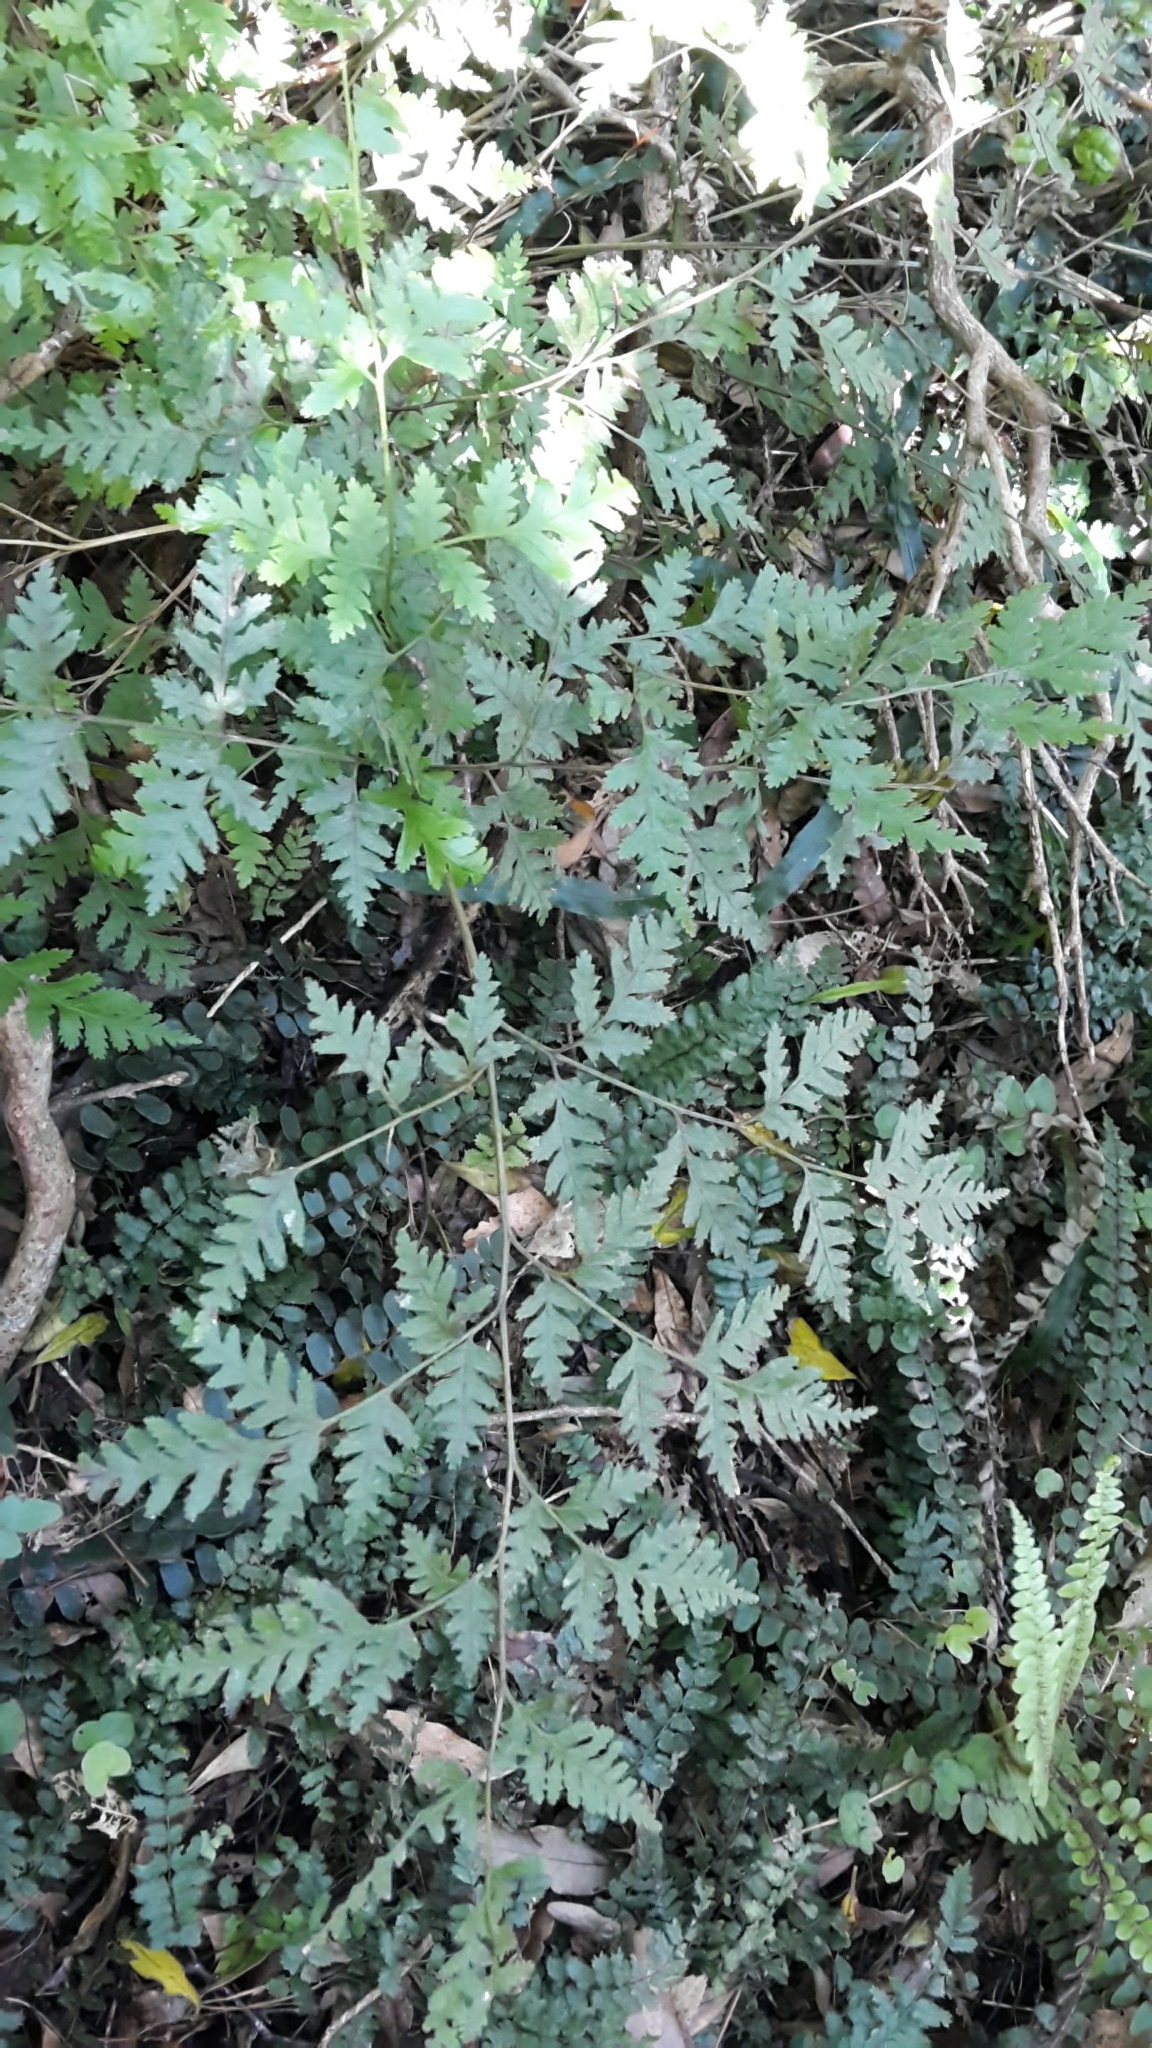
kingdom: Plantae
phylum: Tracheophyta
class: Polypodiopsida
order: Polypodiales
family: Pteridaceae
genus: Pteris
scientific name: Pteris macilenta
